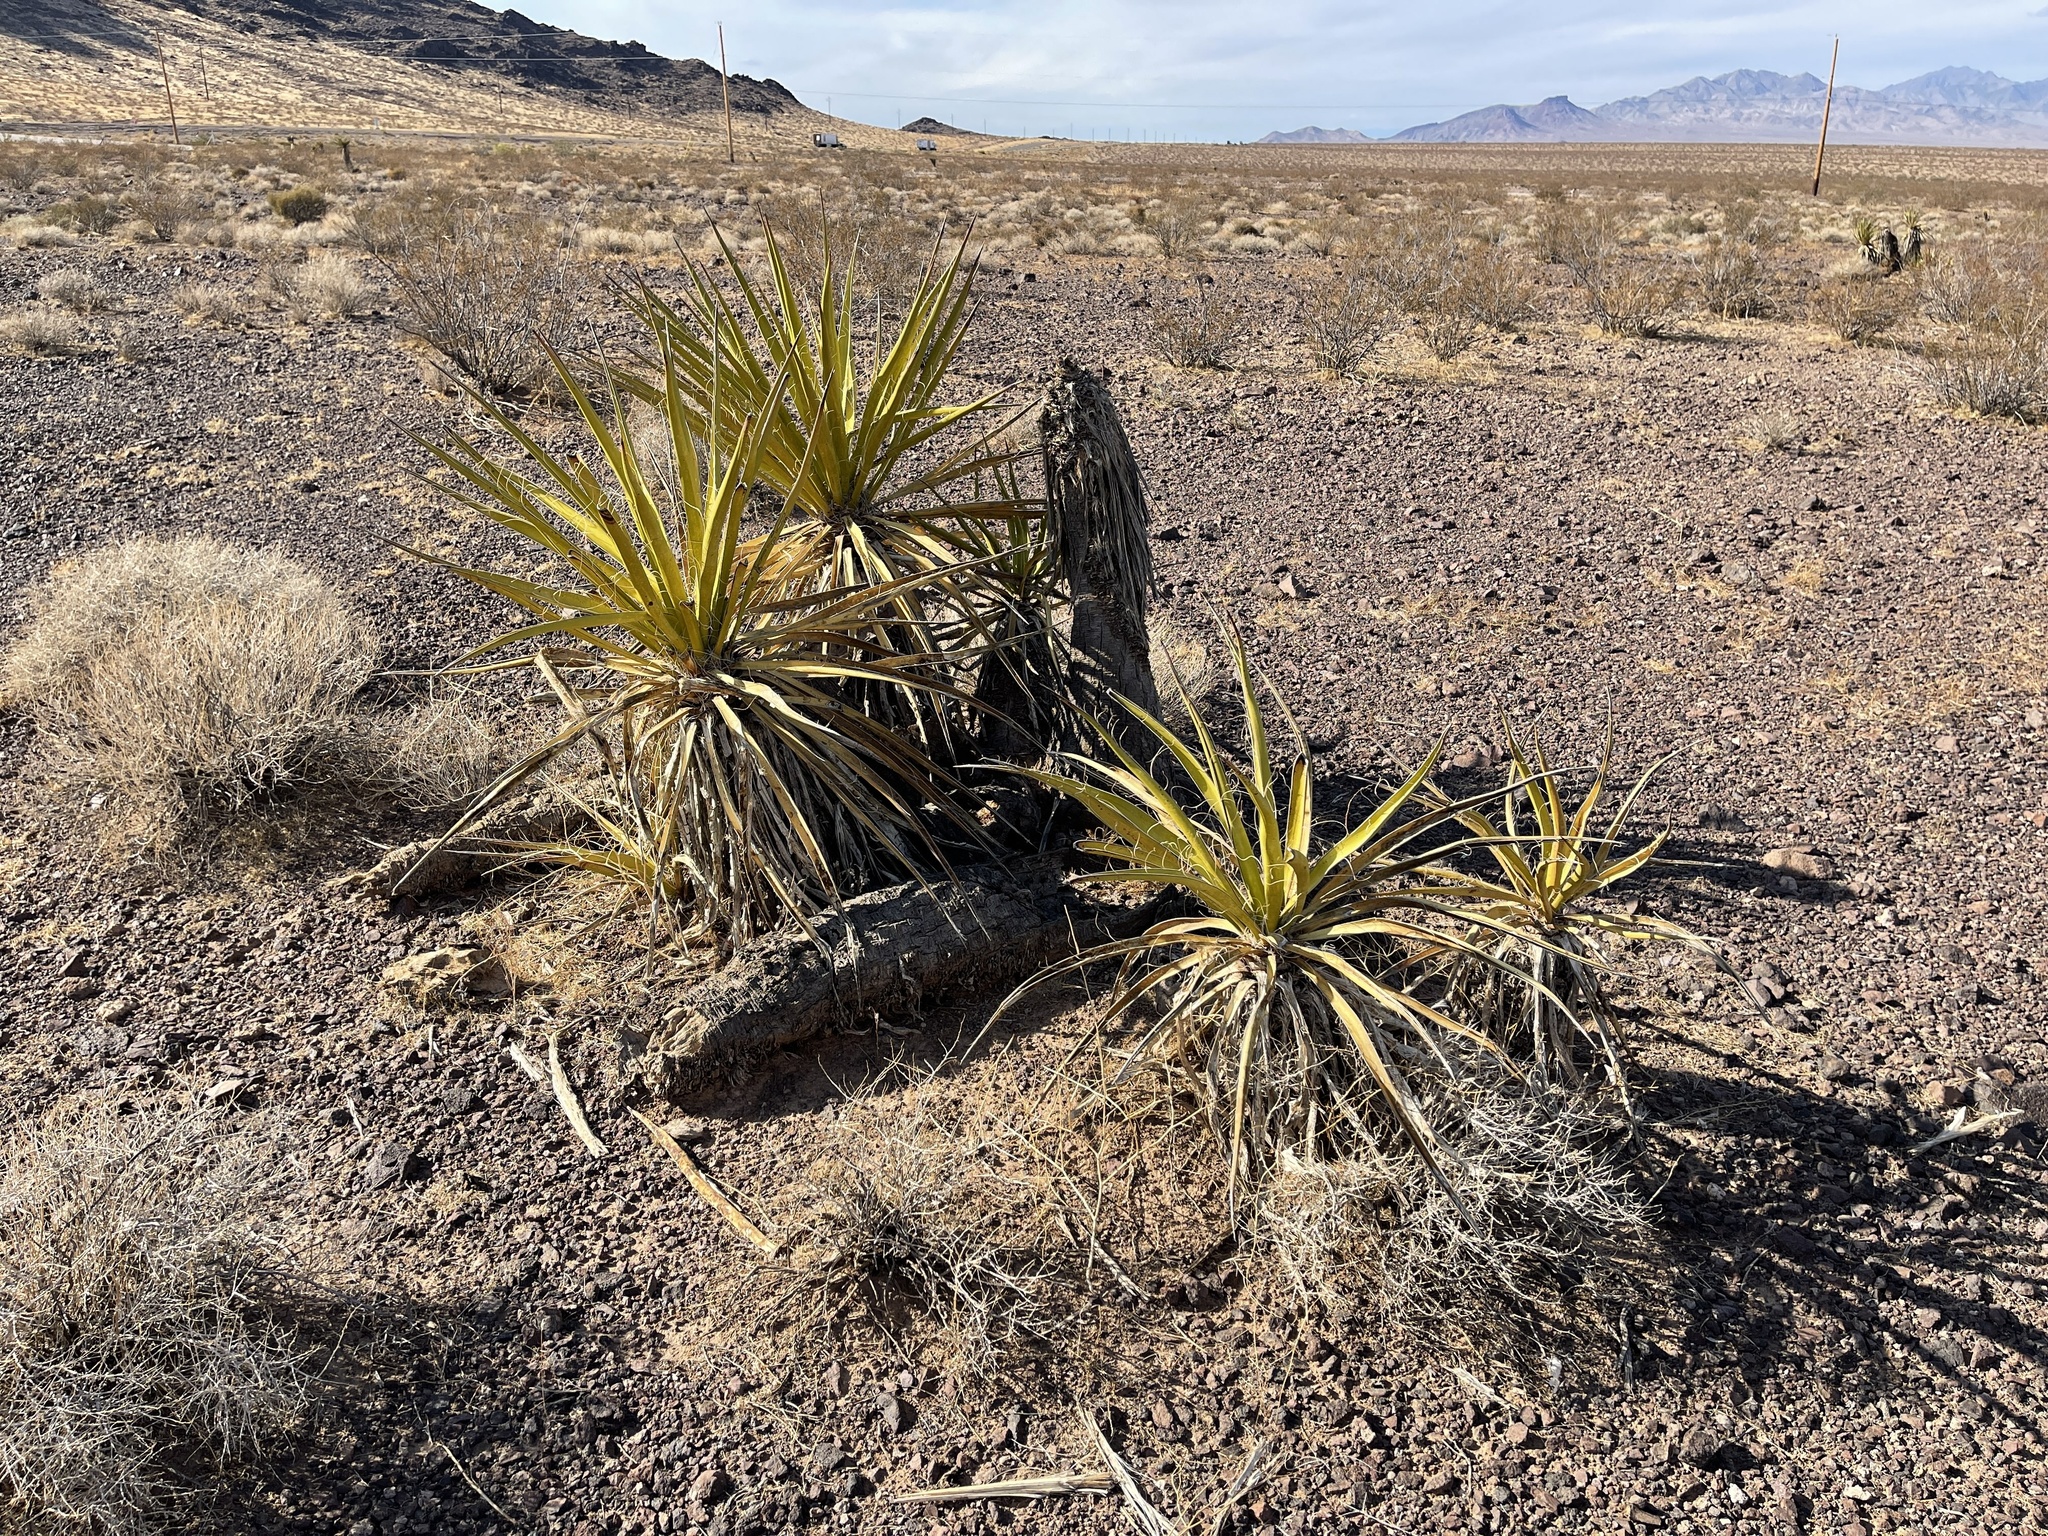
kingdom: Plantae
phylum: Tracheophyta
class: Liliopsida
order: Asparagales
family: Asparagaceae
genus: Yucca
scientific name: Yucca schidigera
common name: Mojave yucca
